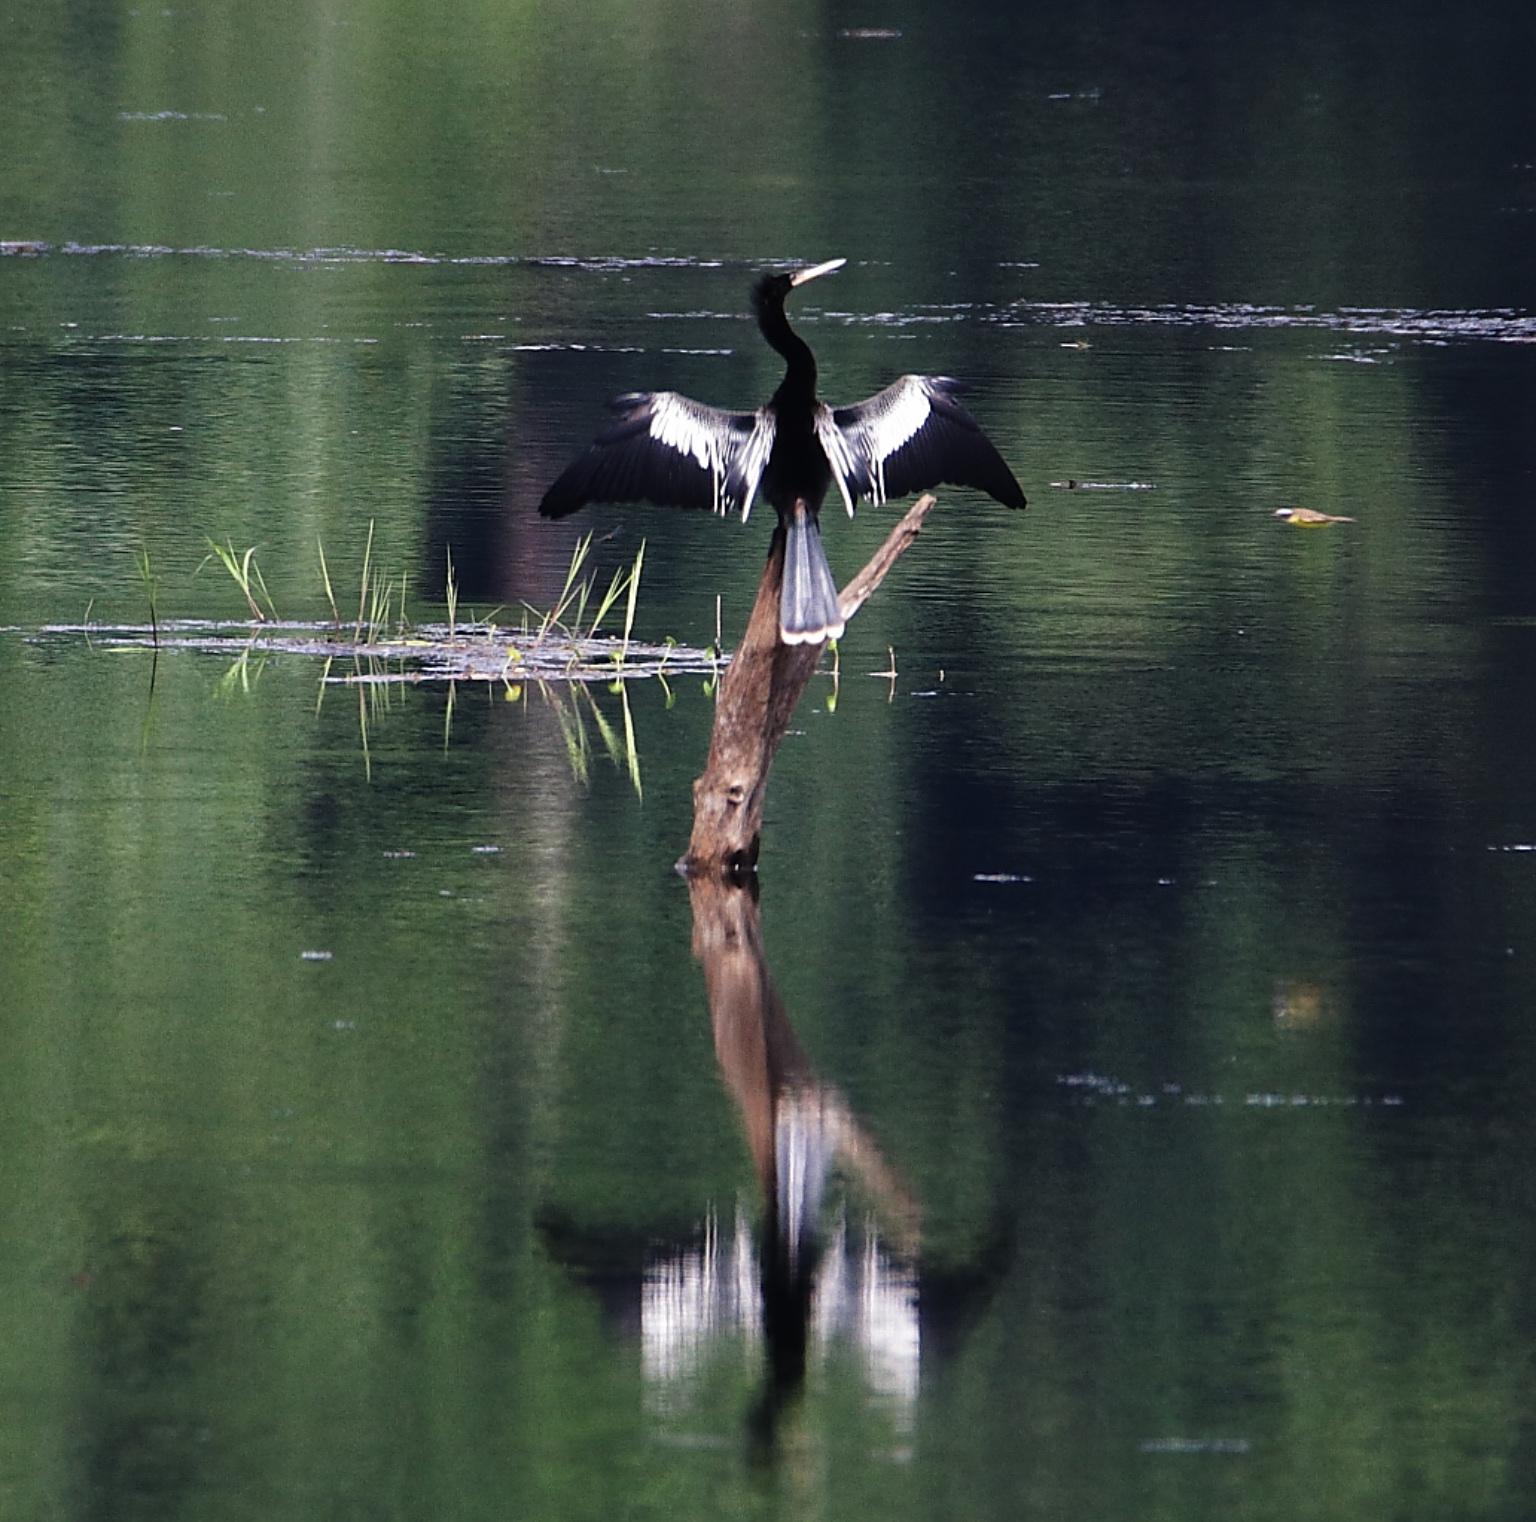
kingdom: Animalia
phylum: Chordata
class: Aves
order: Suliformes
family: Anhingidae
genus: Anhinga
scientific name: Anhinga anhinga
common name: Anhinga
